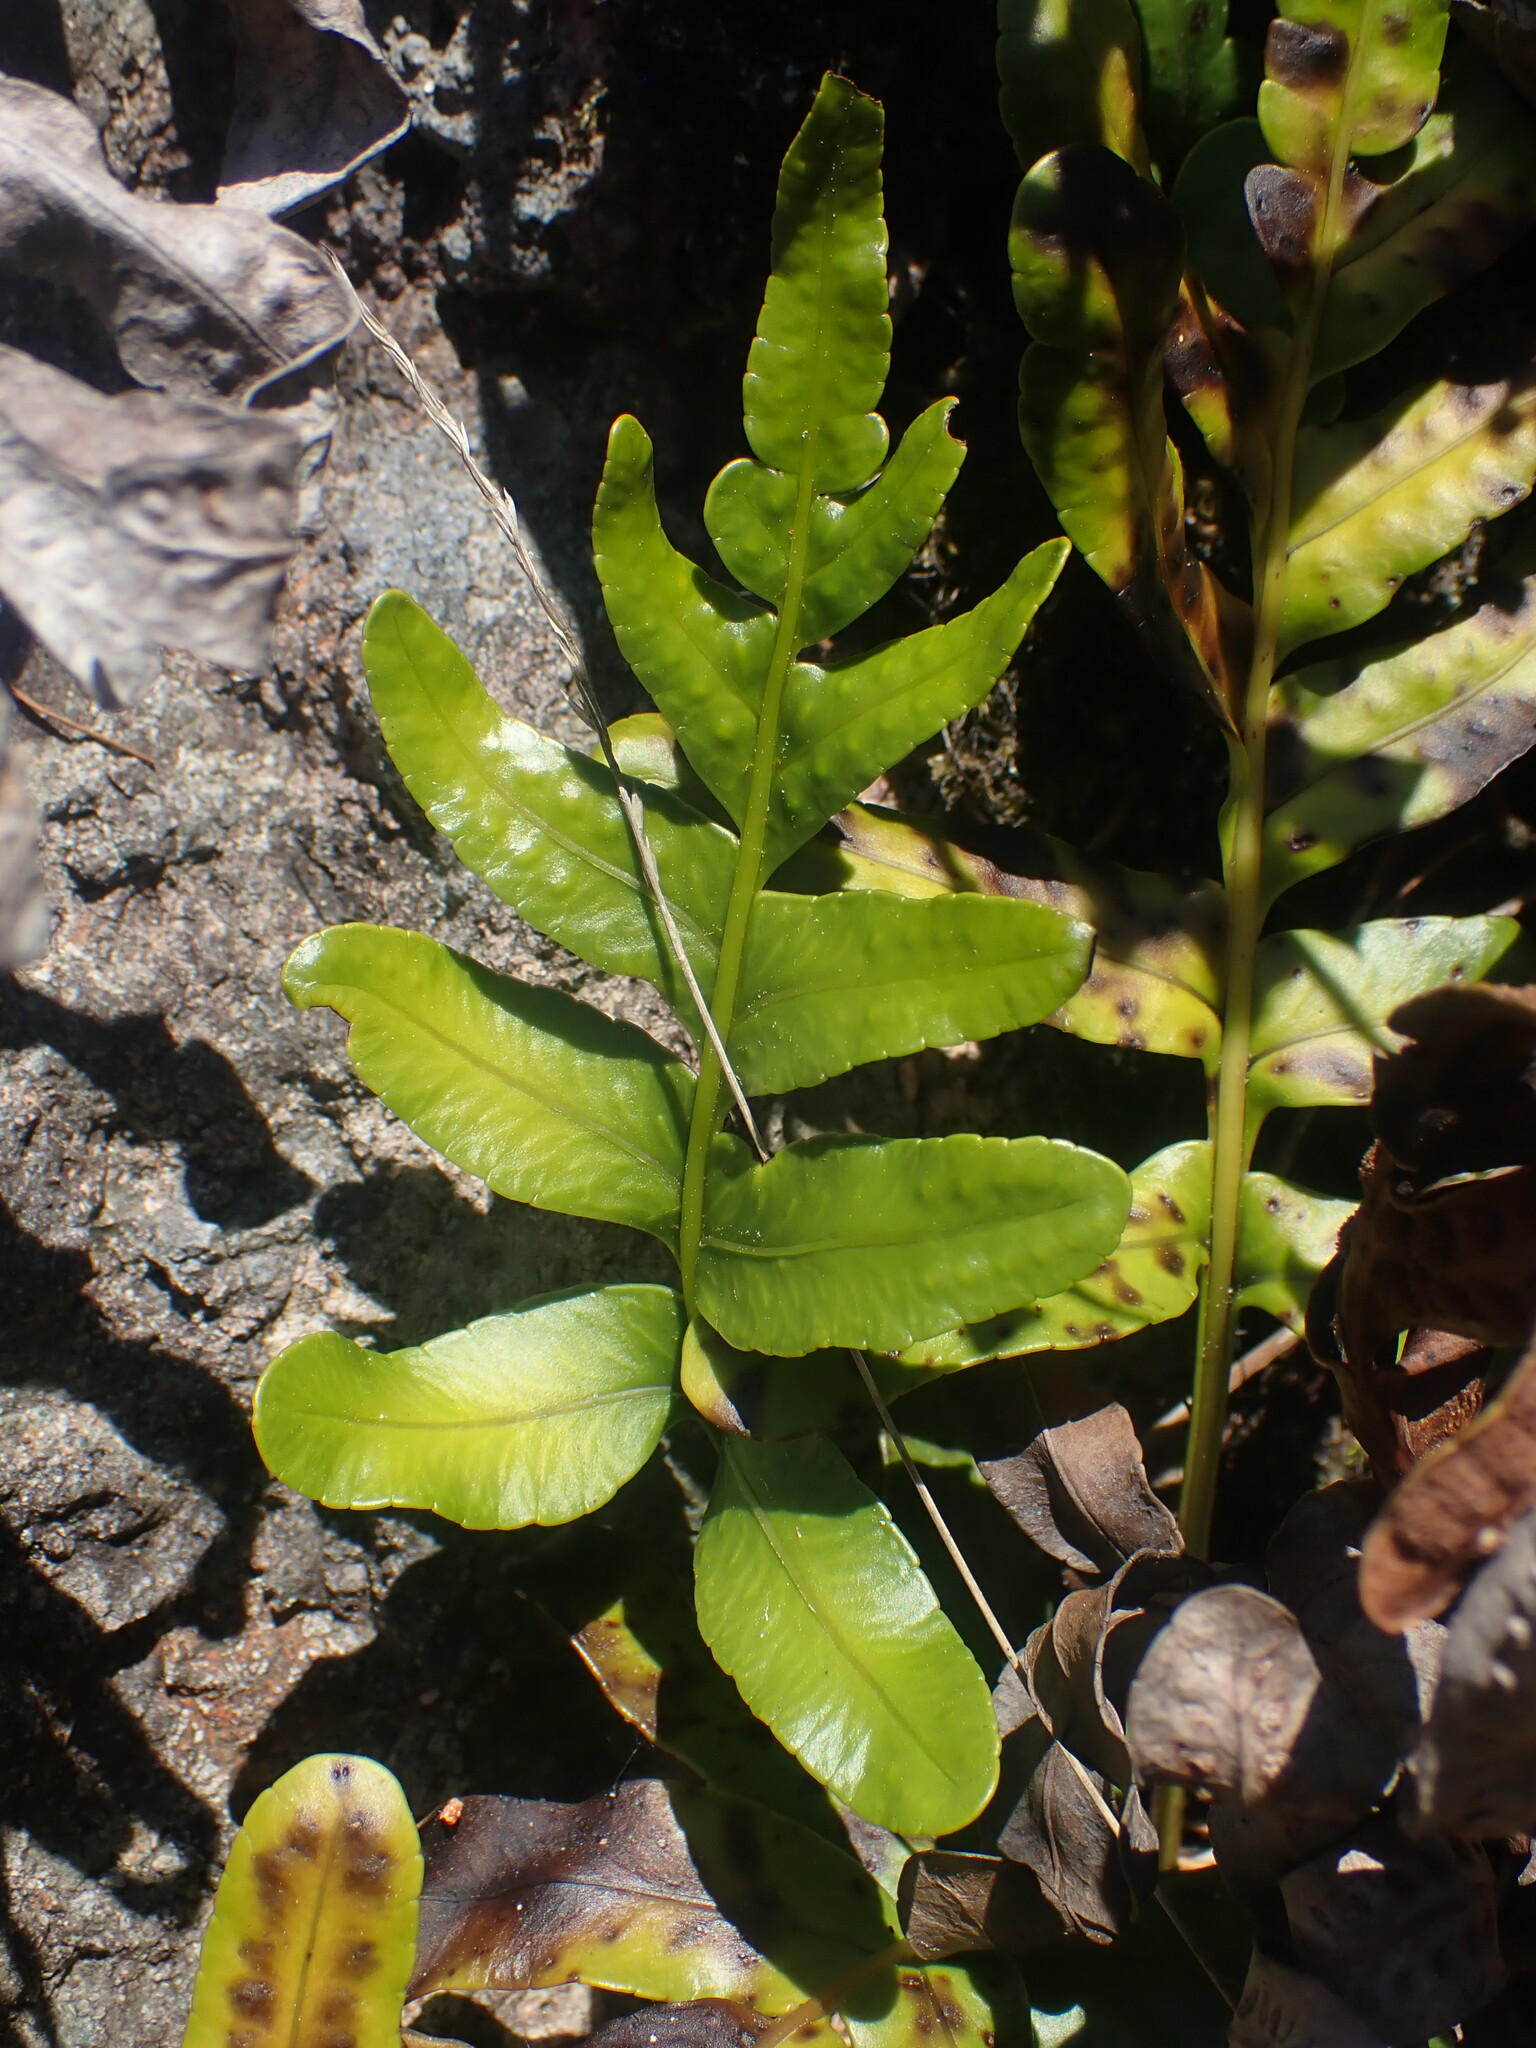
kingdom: Plantae
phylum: Tracheophyta
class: Polypodiopsida
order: Polypodiales
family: Polypodiaceae
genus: Polypodium
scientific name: Polypodium scouleri
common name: Scouler's polypody
